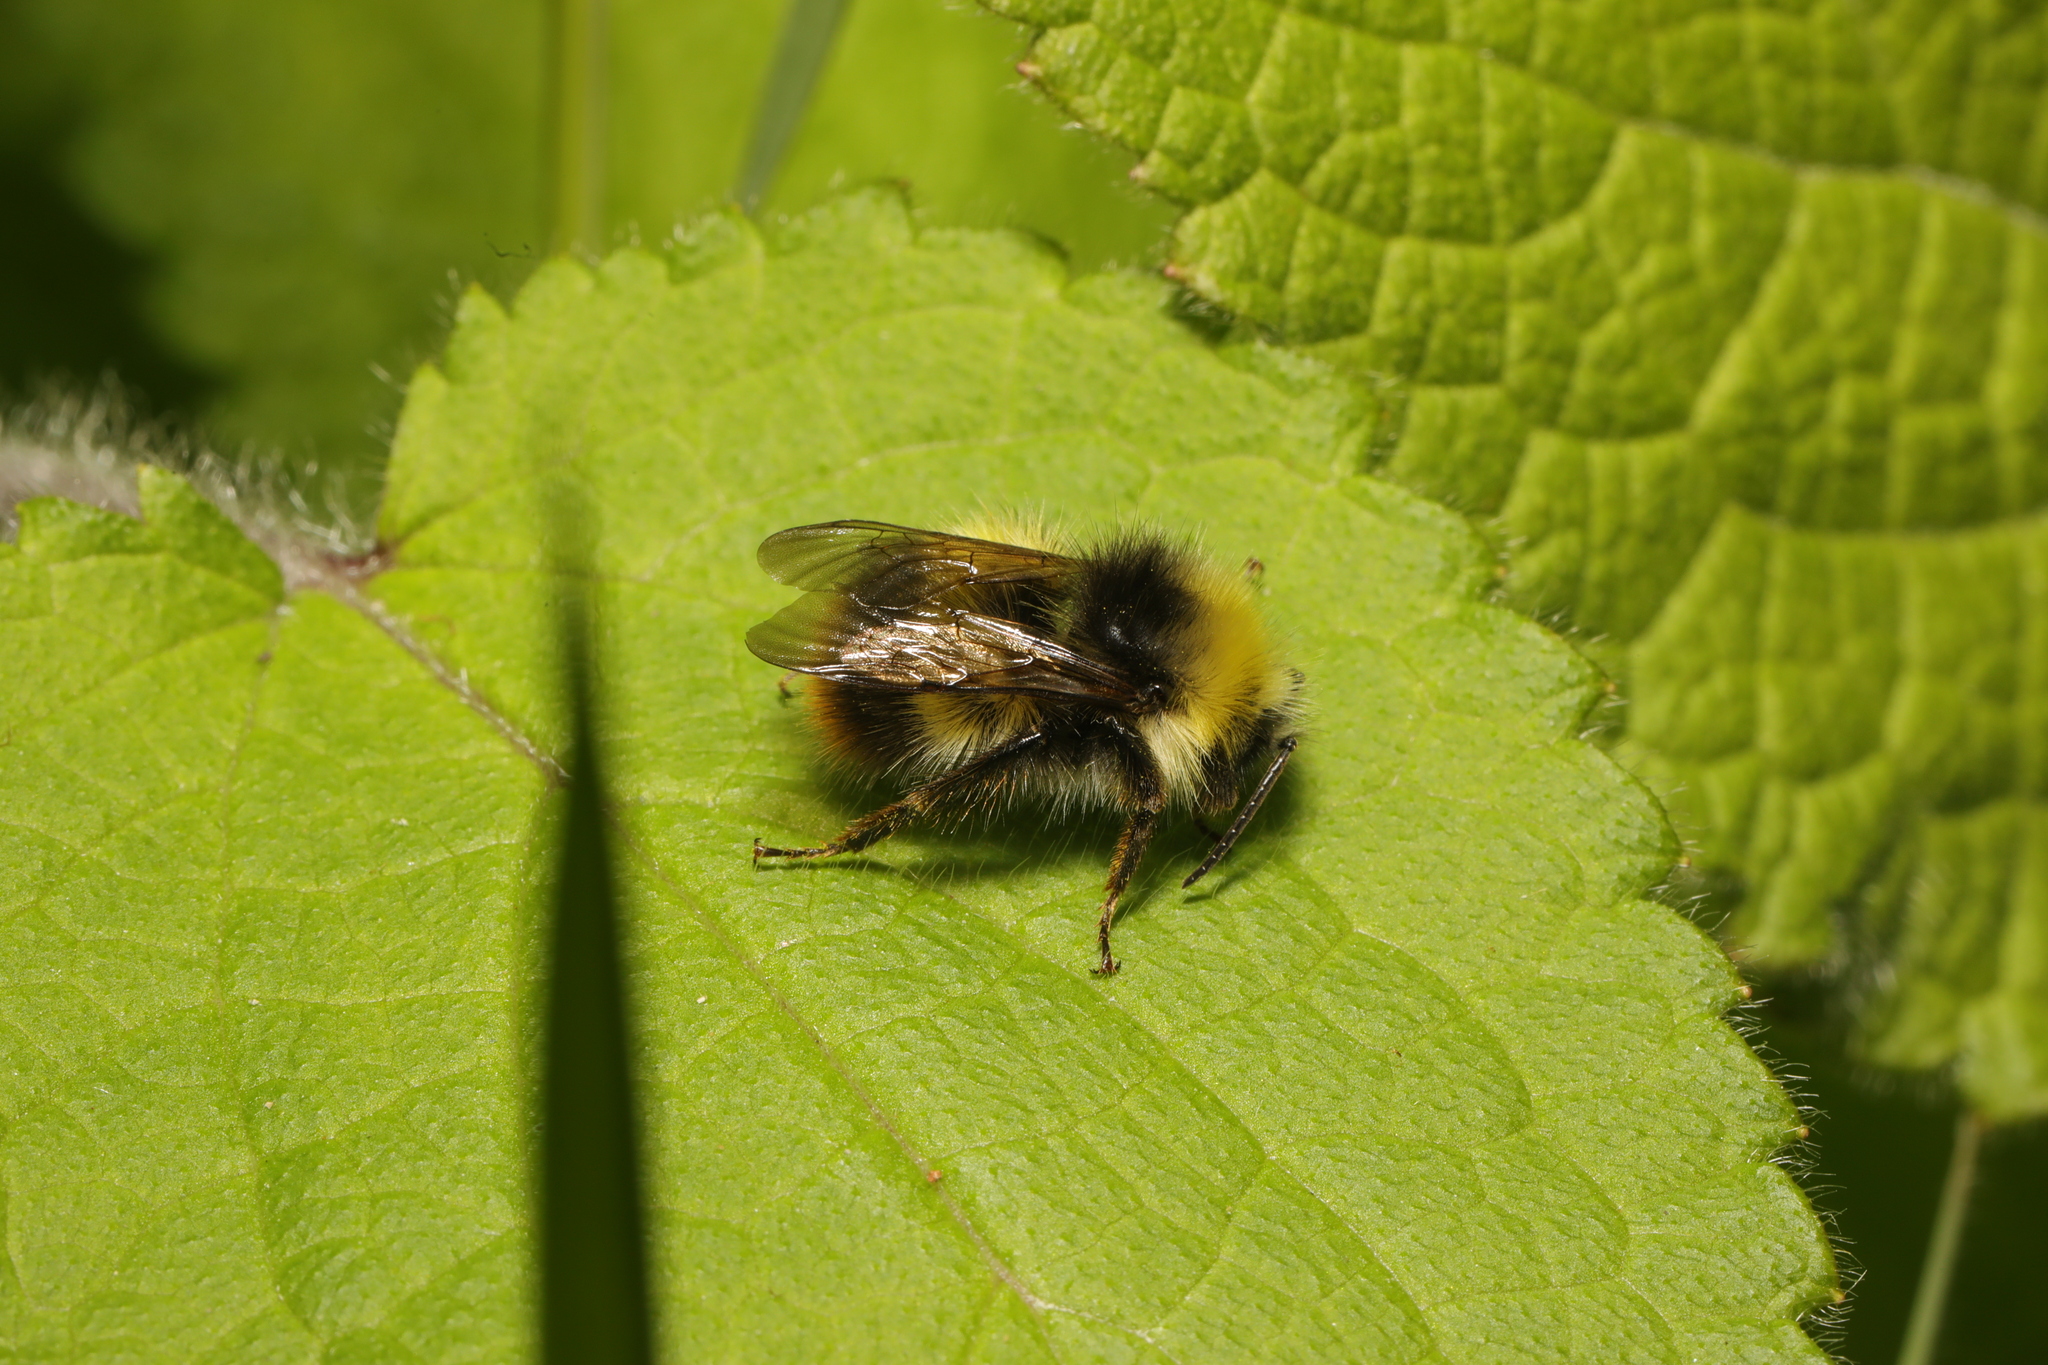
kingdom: Animalia
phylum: Arthropoda
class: Insecta
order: Hymenoptera
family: Apidae
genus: Bombus
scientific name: Bombus pratorum
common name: Early humble-bee
